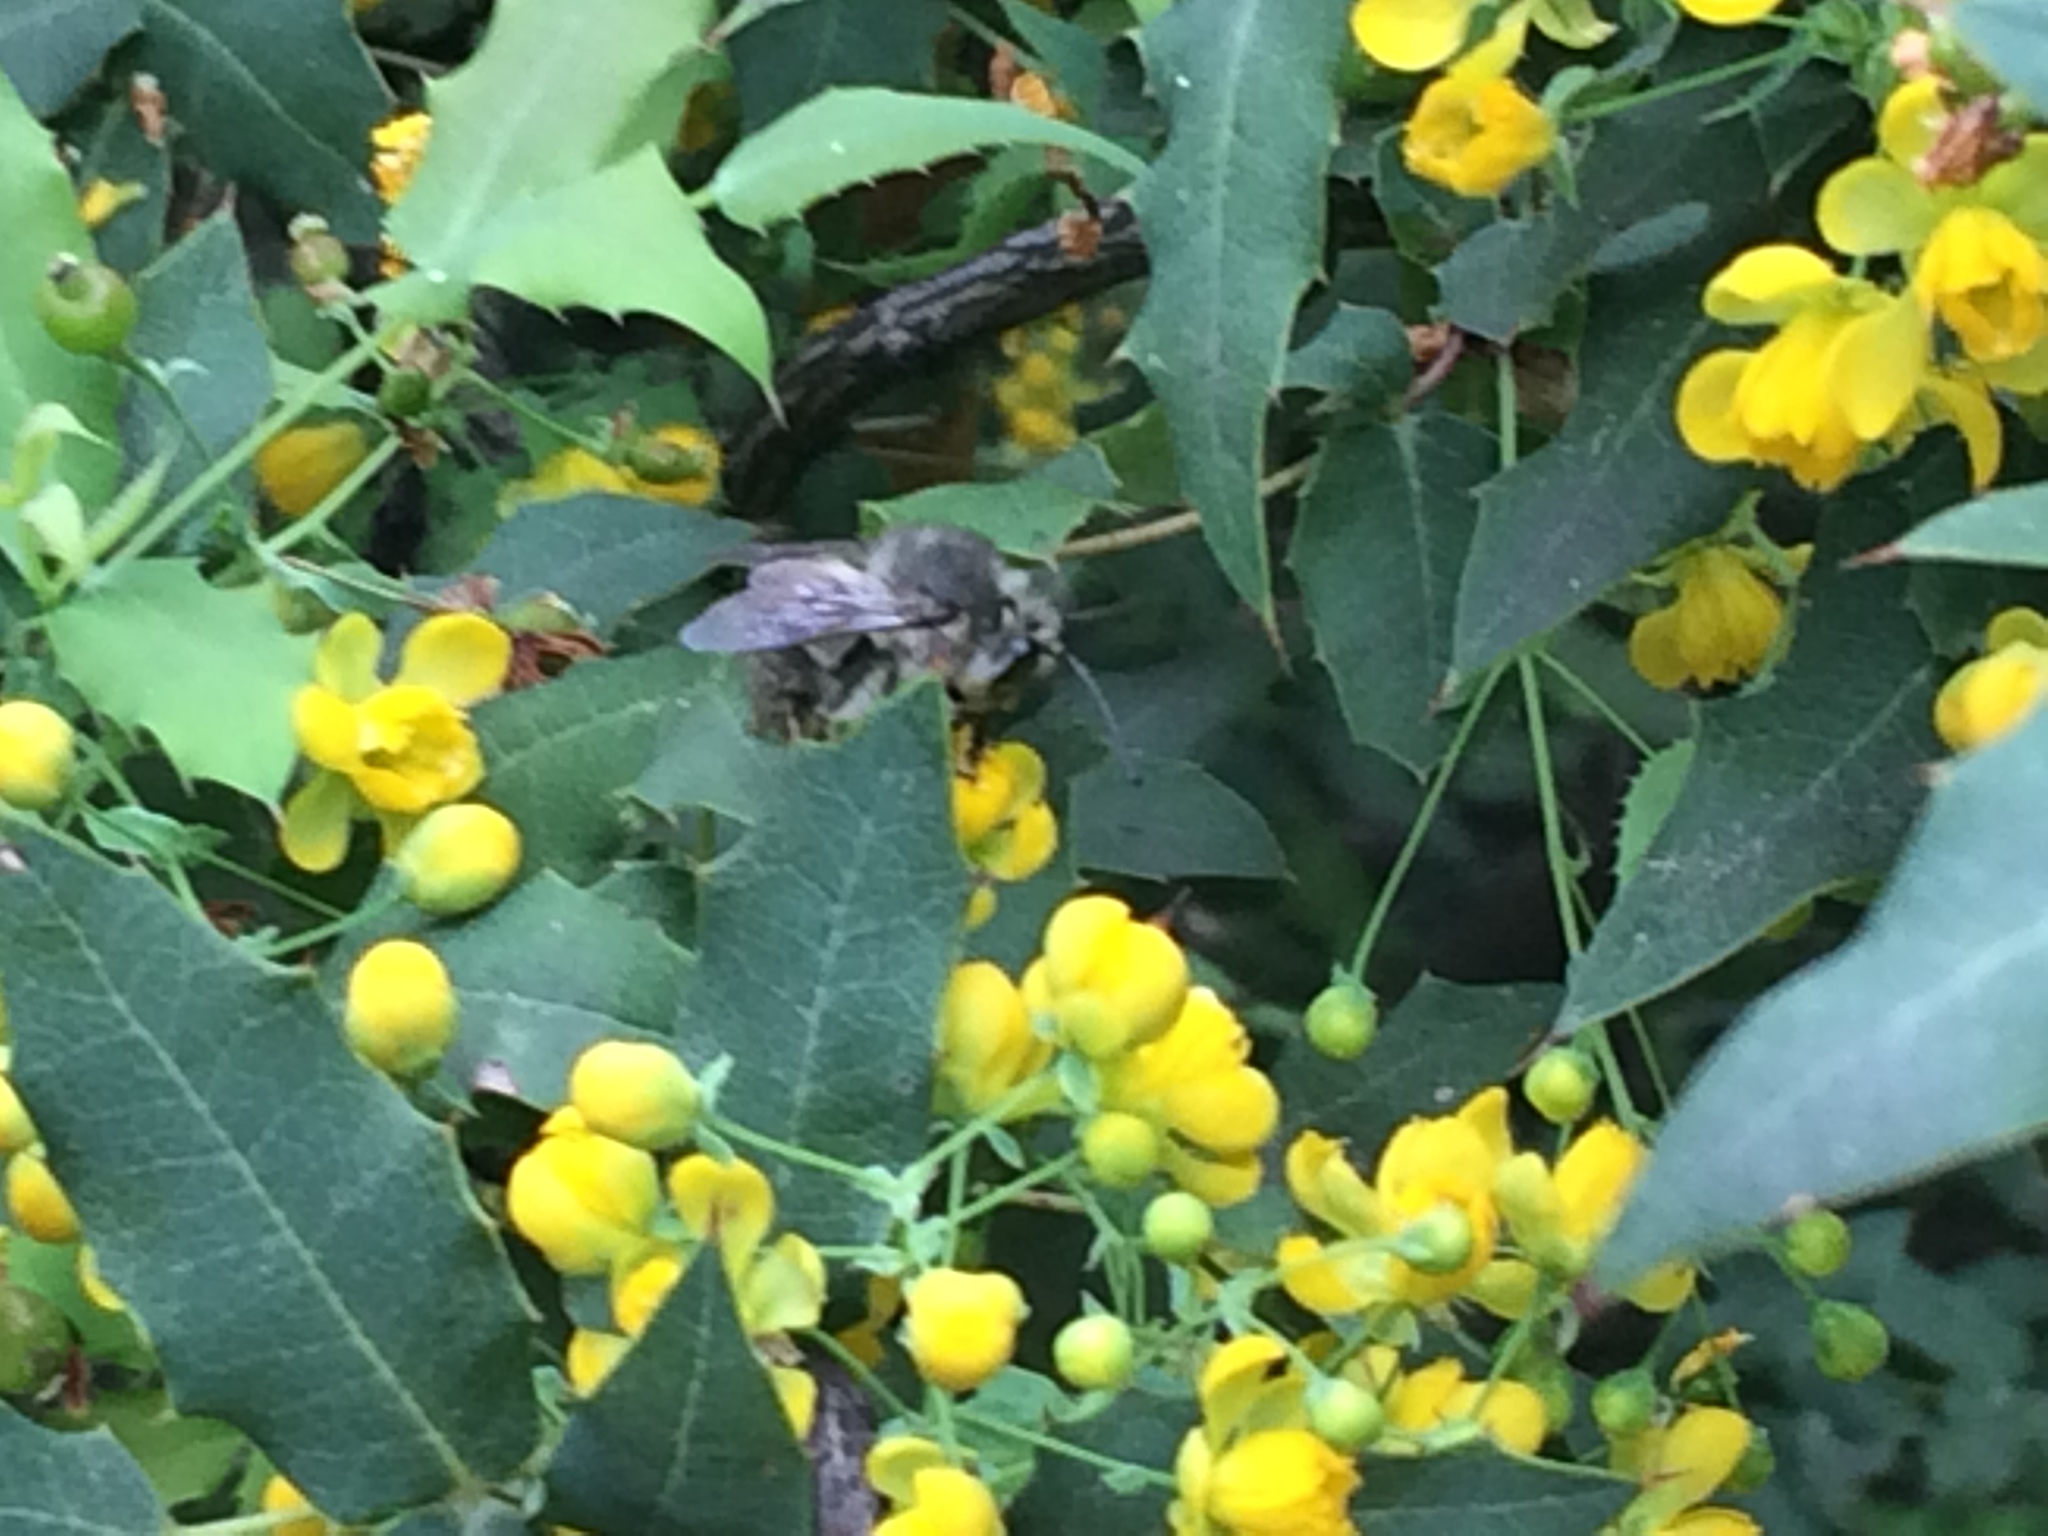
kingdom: Animalia
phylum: Arthropoda
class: Insecta
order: Hymenoptera
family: Apidae
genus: Habropoda
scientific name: Habropoda depressa
